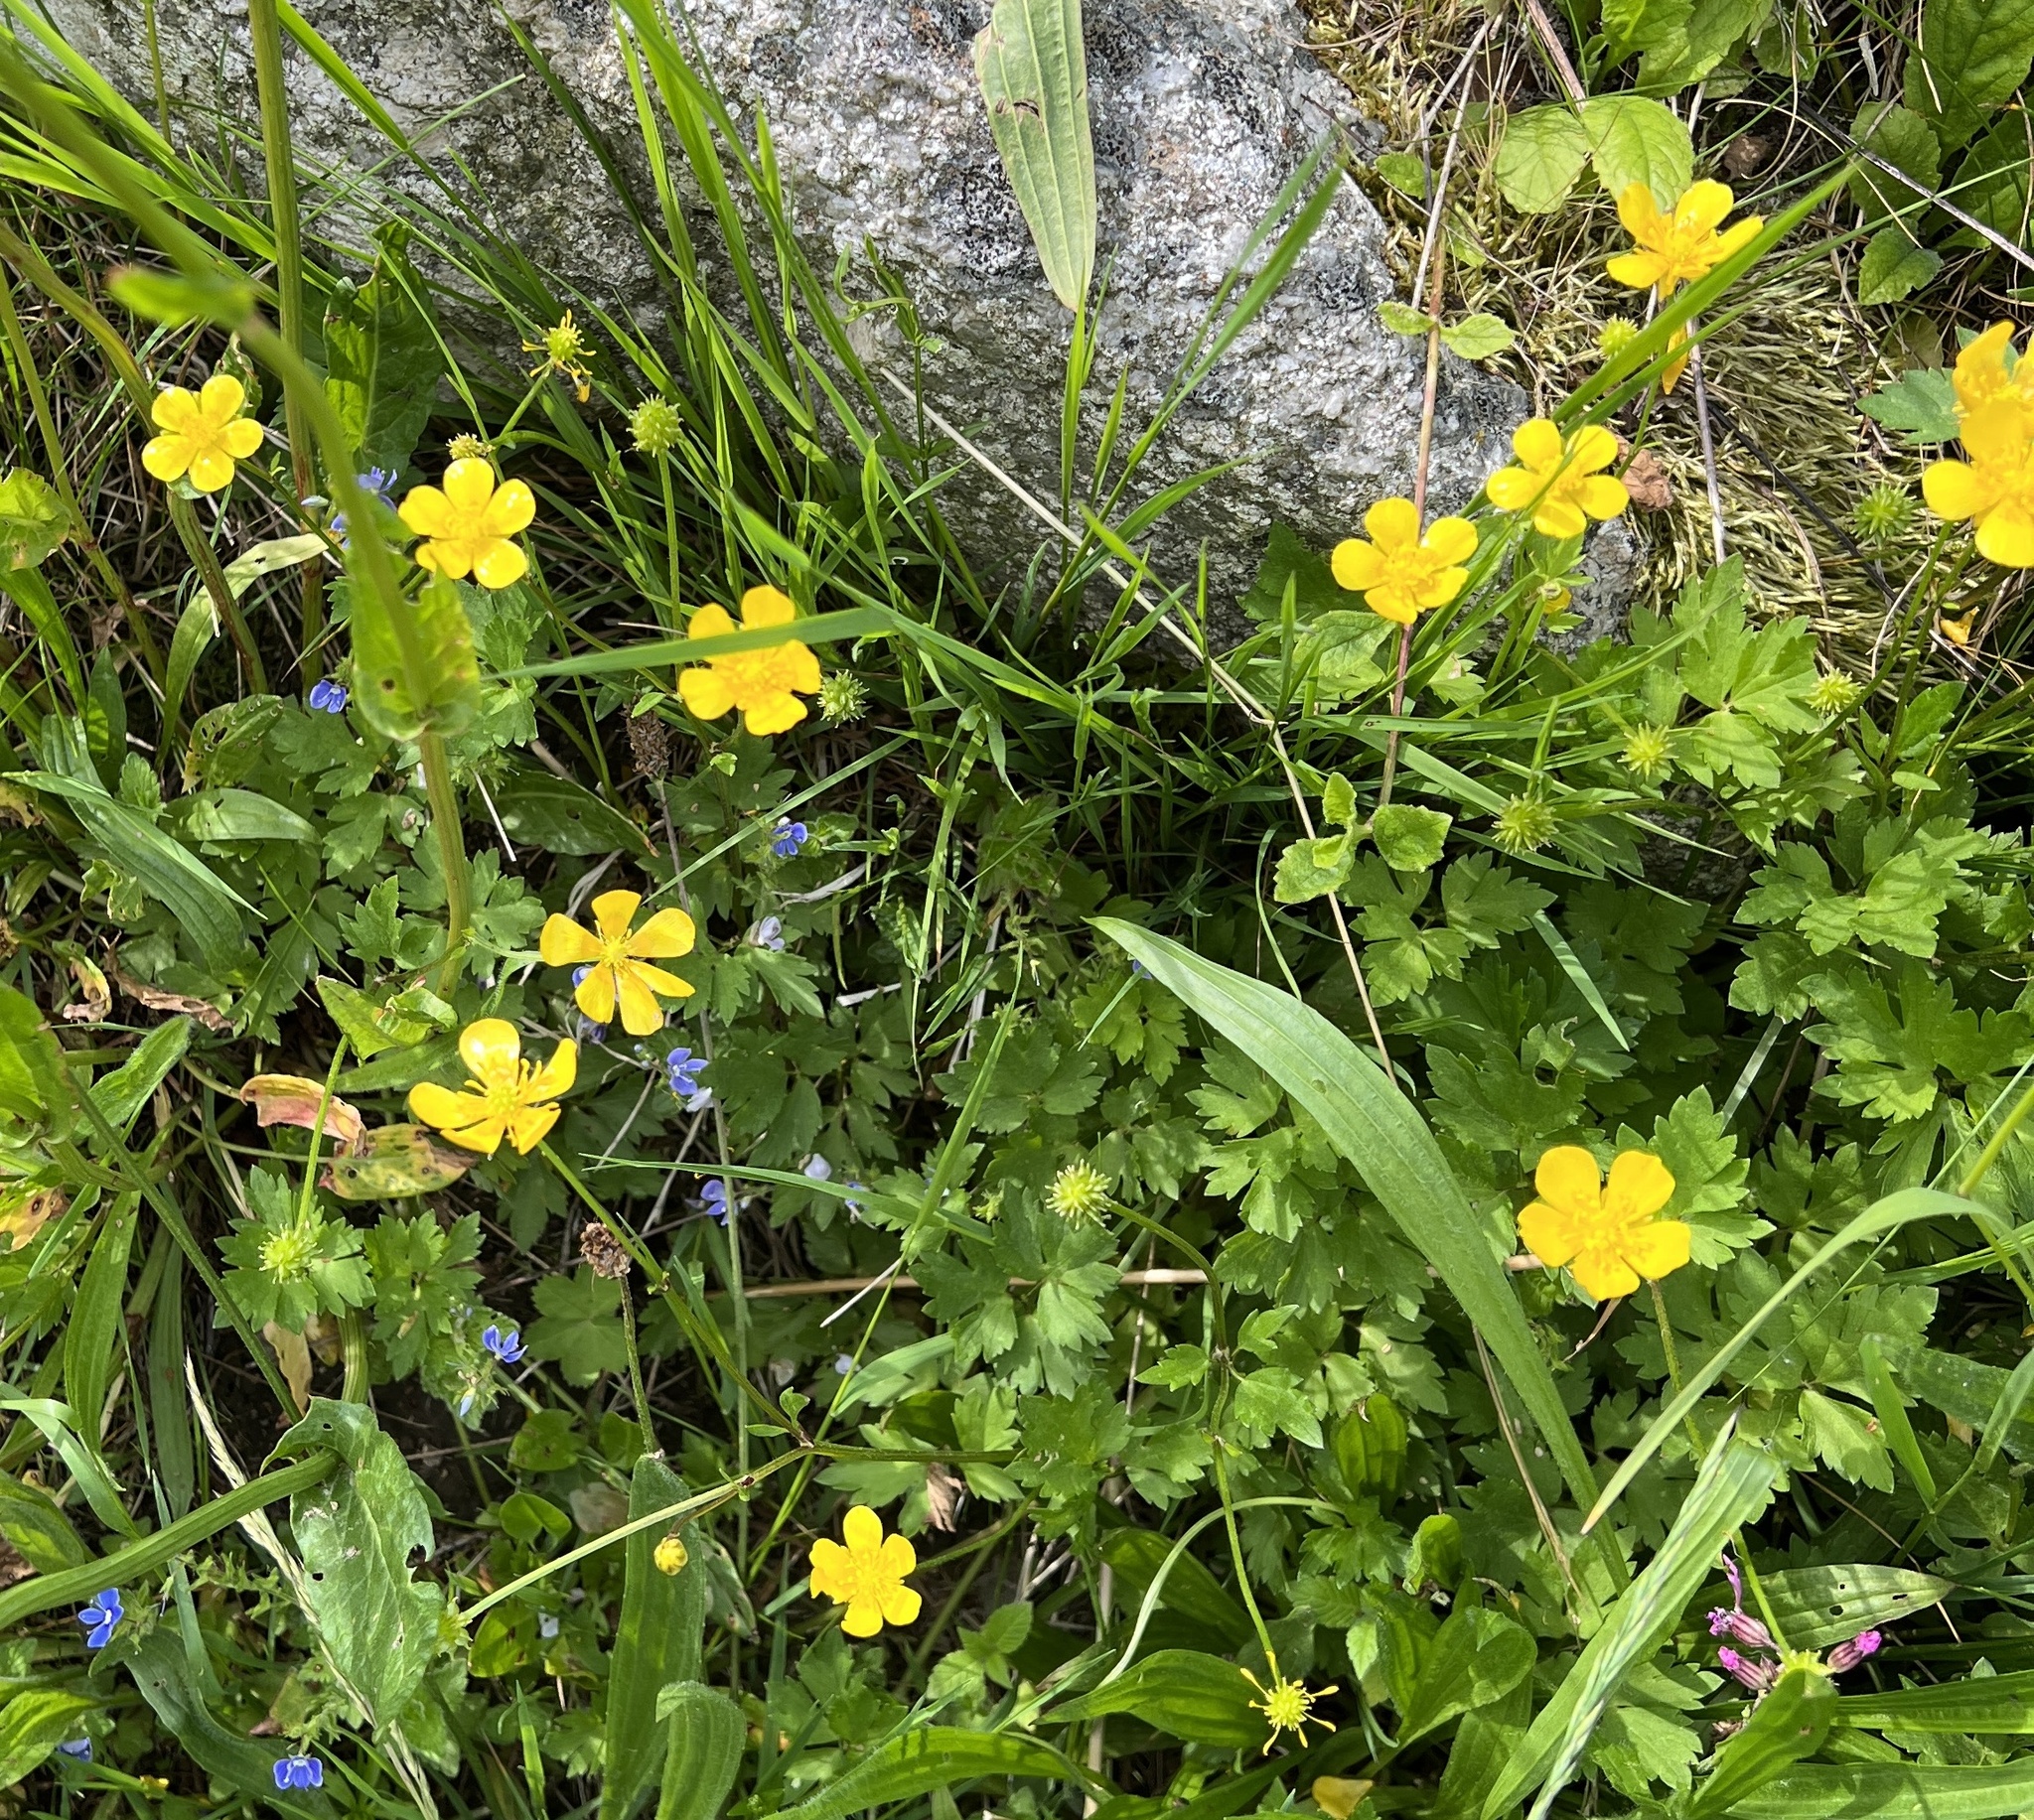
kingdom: Plantae
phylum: Tracheophyta
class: Magnoliopsida
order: Ranunculales
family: Ranunculaceae
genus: Ranunculus
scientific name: Ranunculus repens
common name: Creeping buttercup
